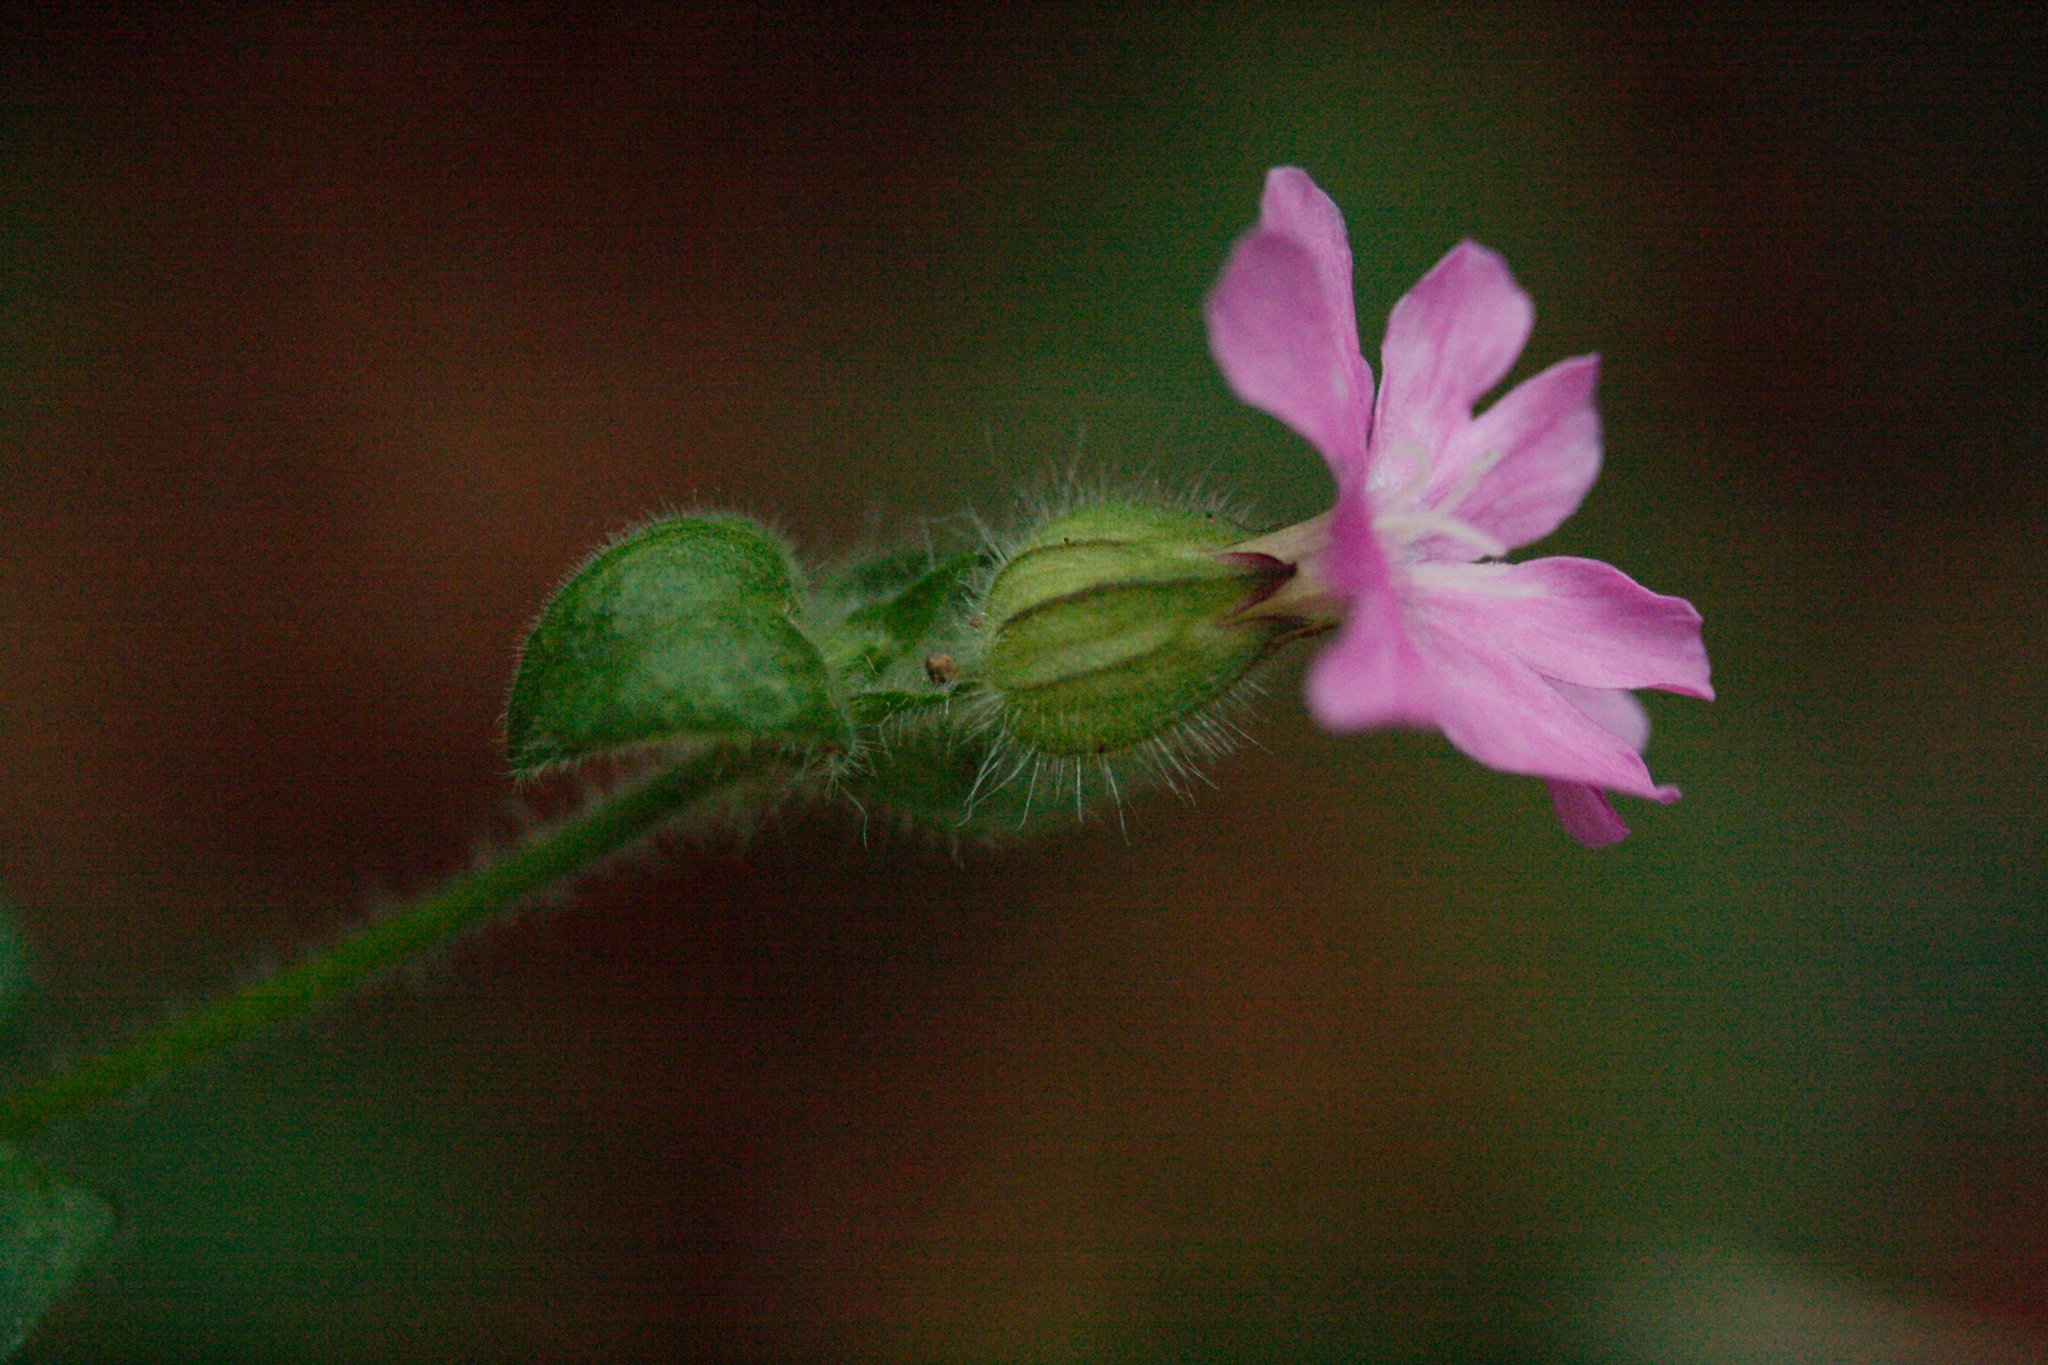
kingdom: Plantae
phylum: Tracheophyta
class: Magnoliopsida
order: Caryophyllales
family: Caryophyllaceae
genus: Silene
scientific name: Silene dioica
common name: Red campion
